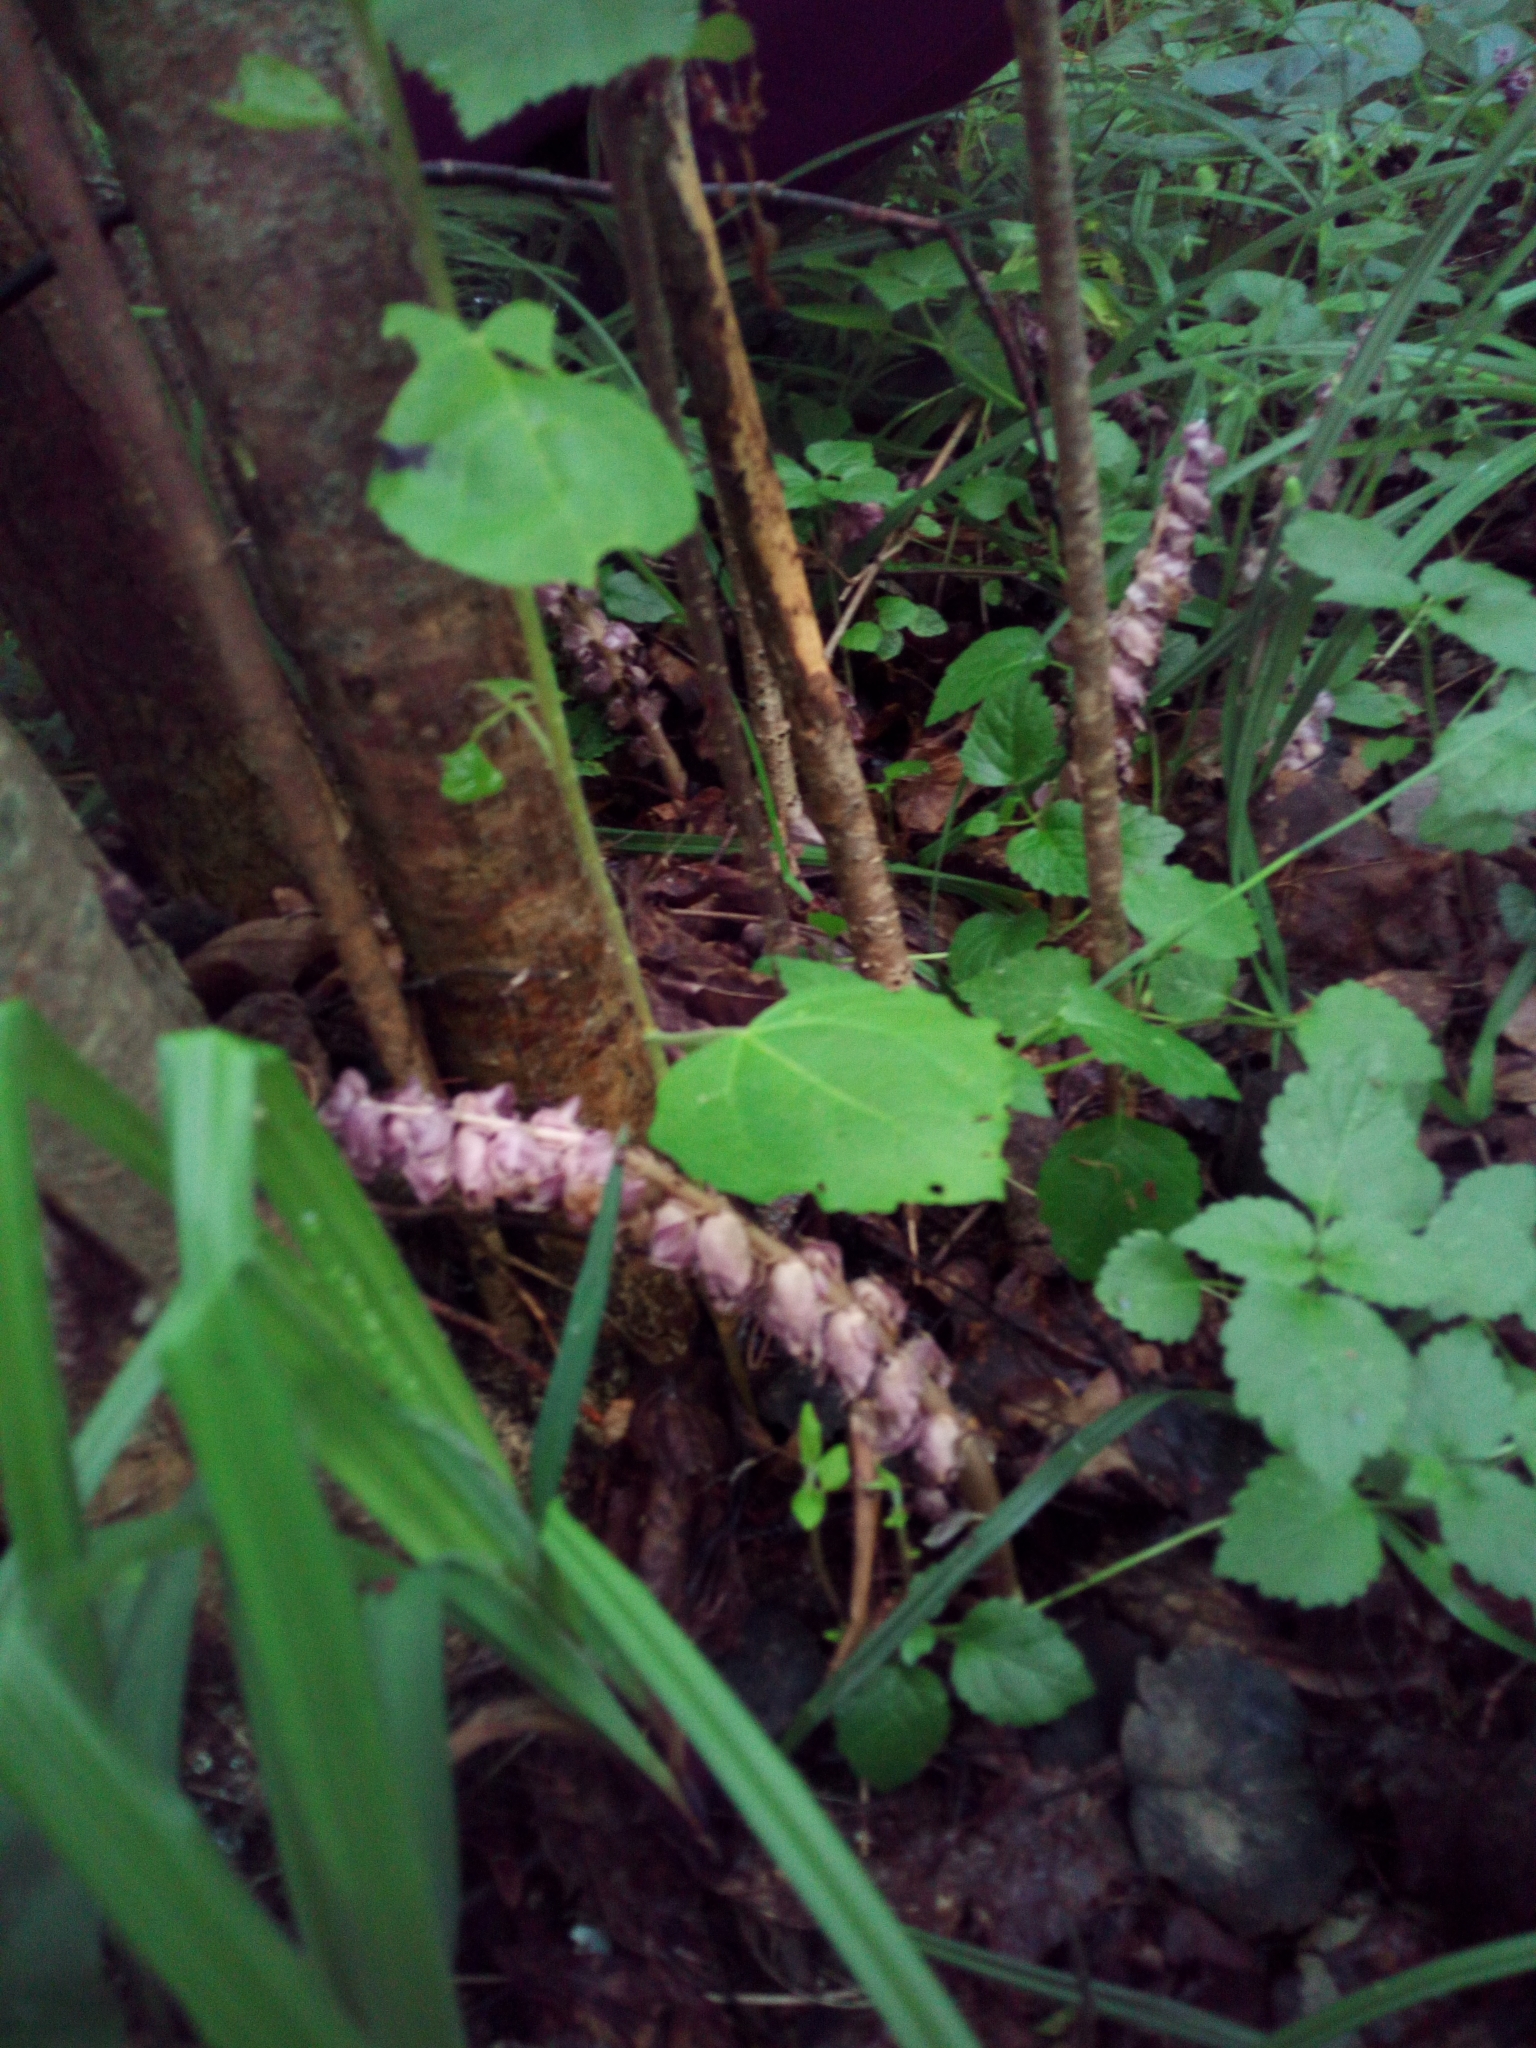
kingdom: Plantae
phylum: Tracheophyta
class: Magnoliopsida
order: Lamiales
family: Orobanchaceae
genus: Lathraea
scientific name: Lathraea squamaria
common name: Toothwort
